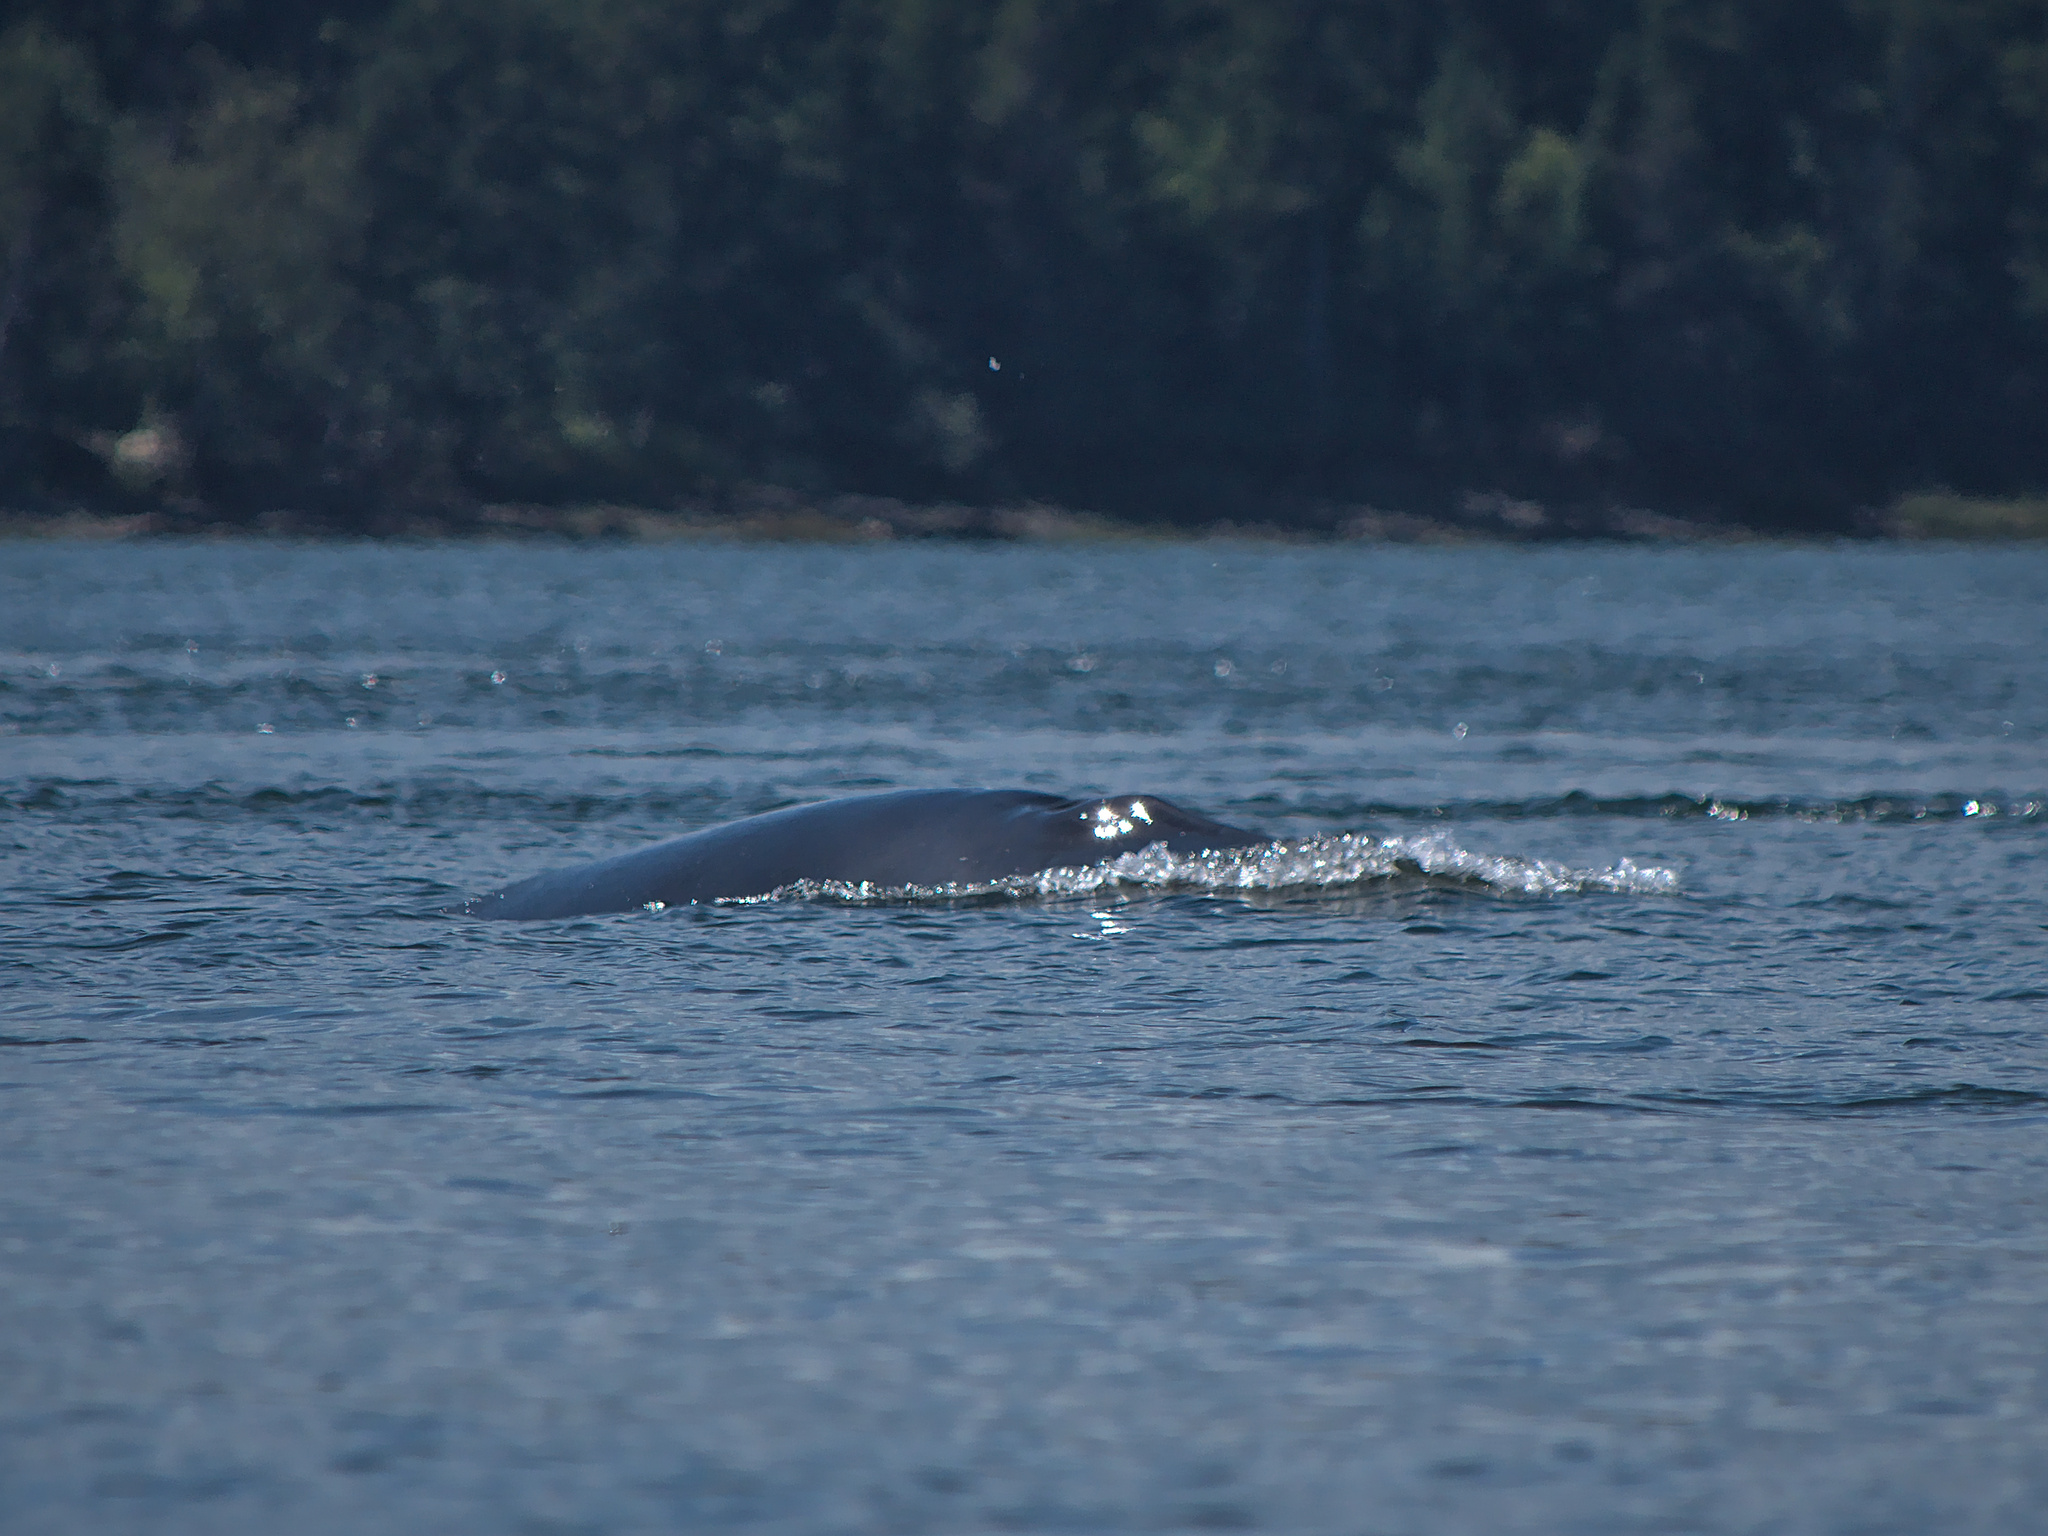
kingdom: Animalia
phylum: Chordata
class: Mammalia
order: Cetacea
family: Balaenopteridae
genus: Balaenoptera
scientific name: Balaenoptera acutorostrata
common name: Common minke whale
